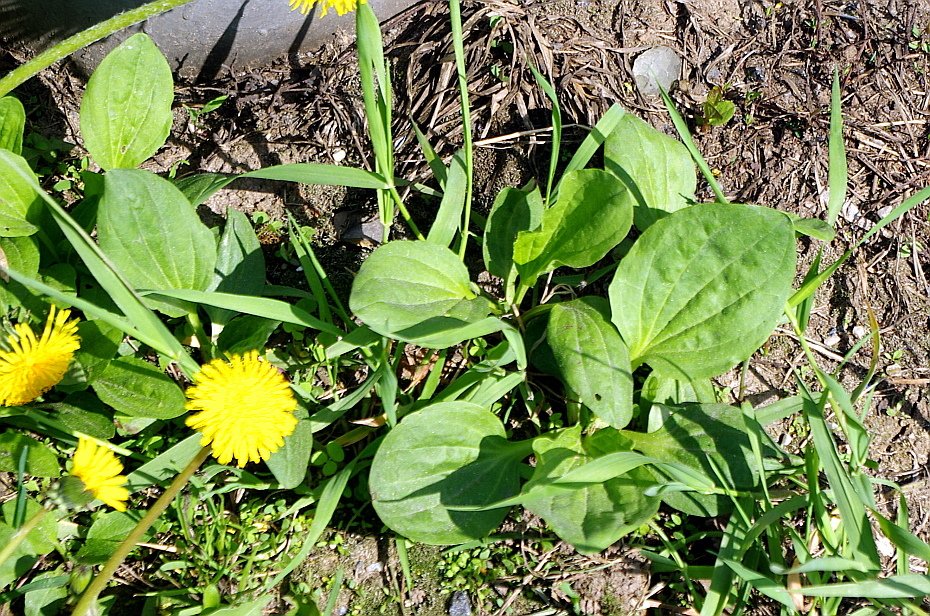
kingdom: Plantae
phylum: Tracheophyta
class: Magnoliopsida
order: Lamiales
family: Plantaginaceae
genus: Plantago
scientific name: Plantago major
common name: Common plantain
